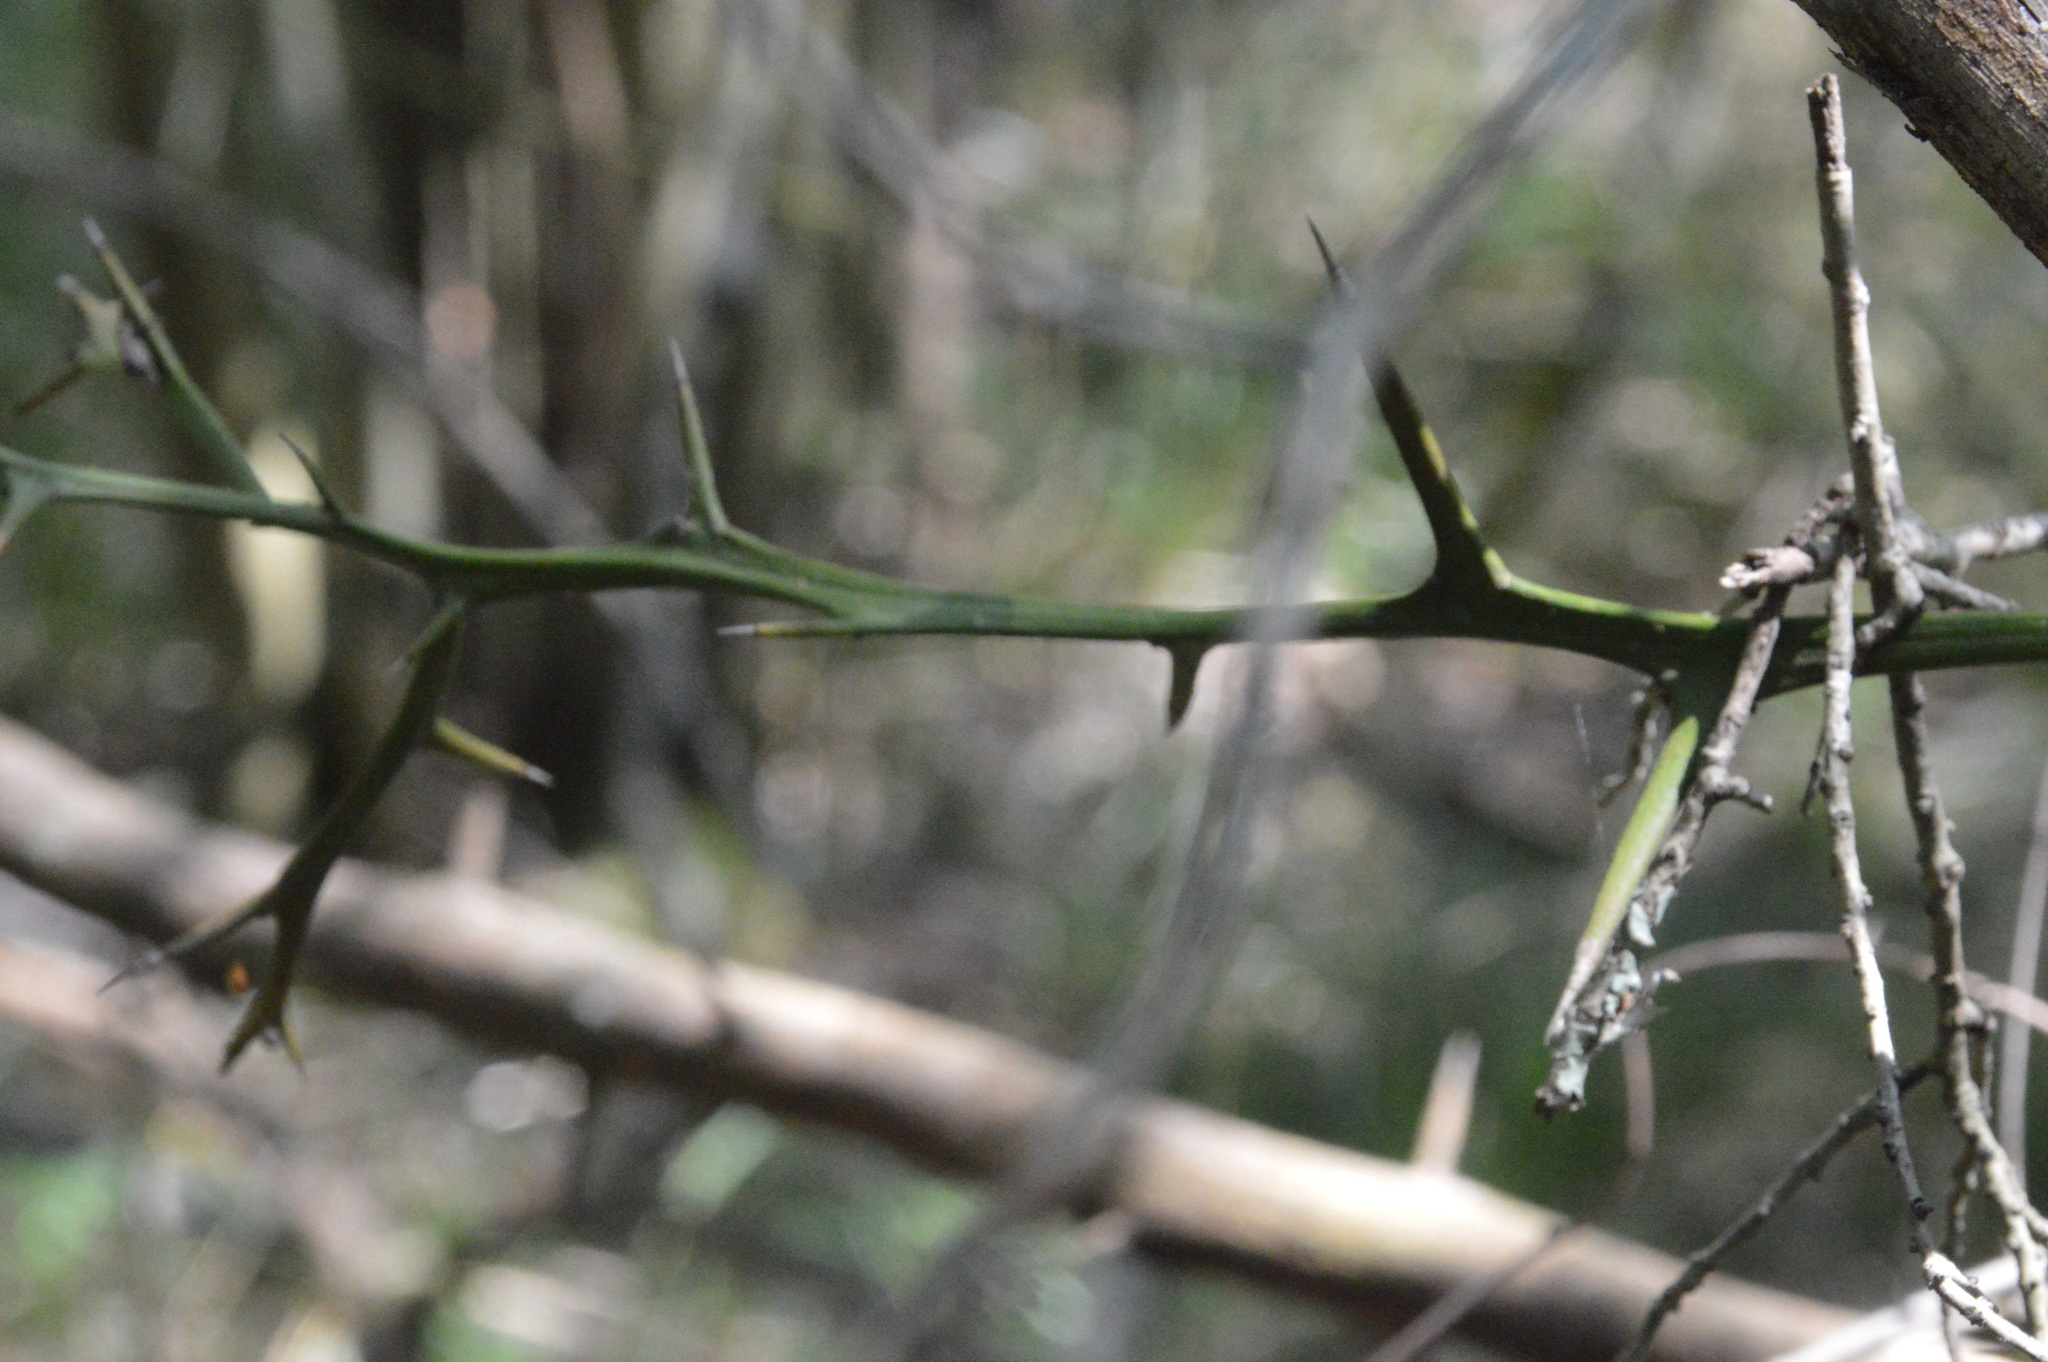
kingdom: Plantae
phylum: Tracheophyta
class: Magnoliopsida
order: Sapindales
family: Rutaceae
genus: Citrus
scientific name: Citrus trifoliata
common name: Japanese bitter-orange
